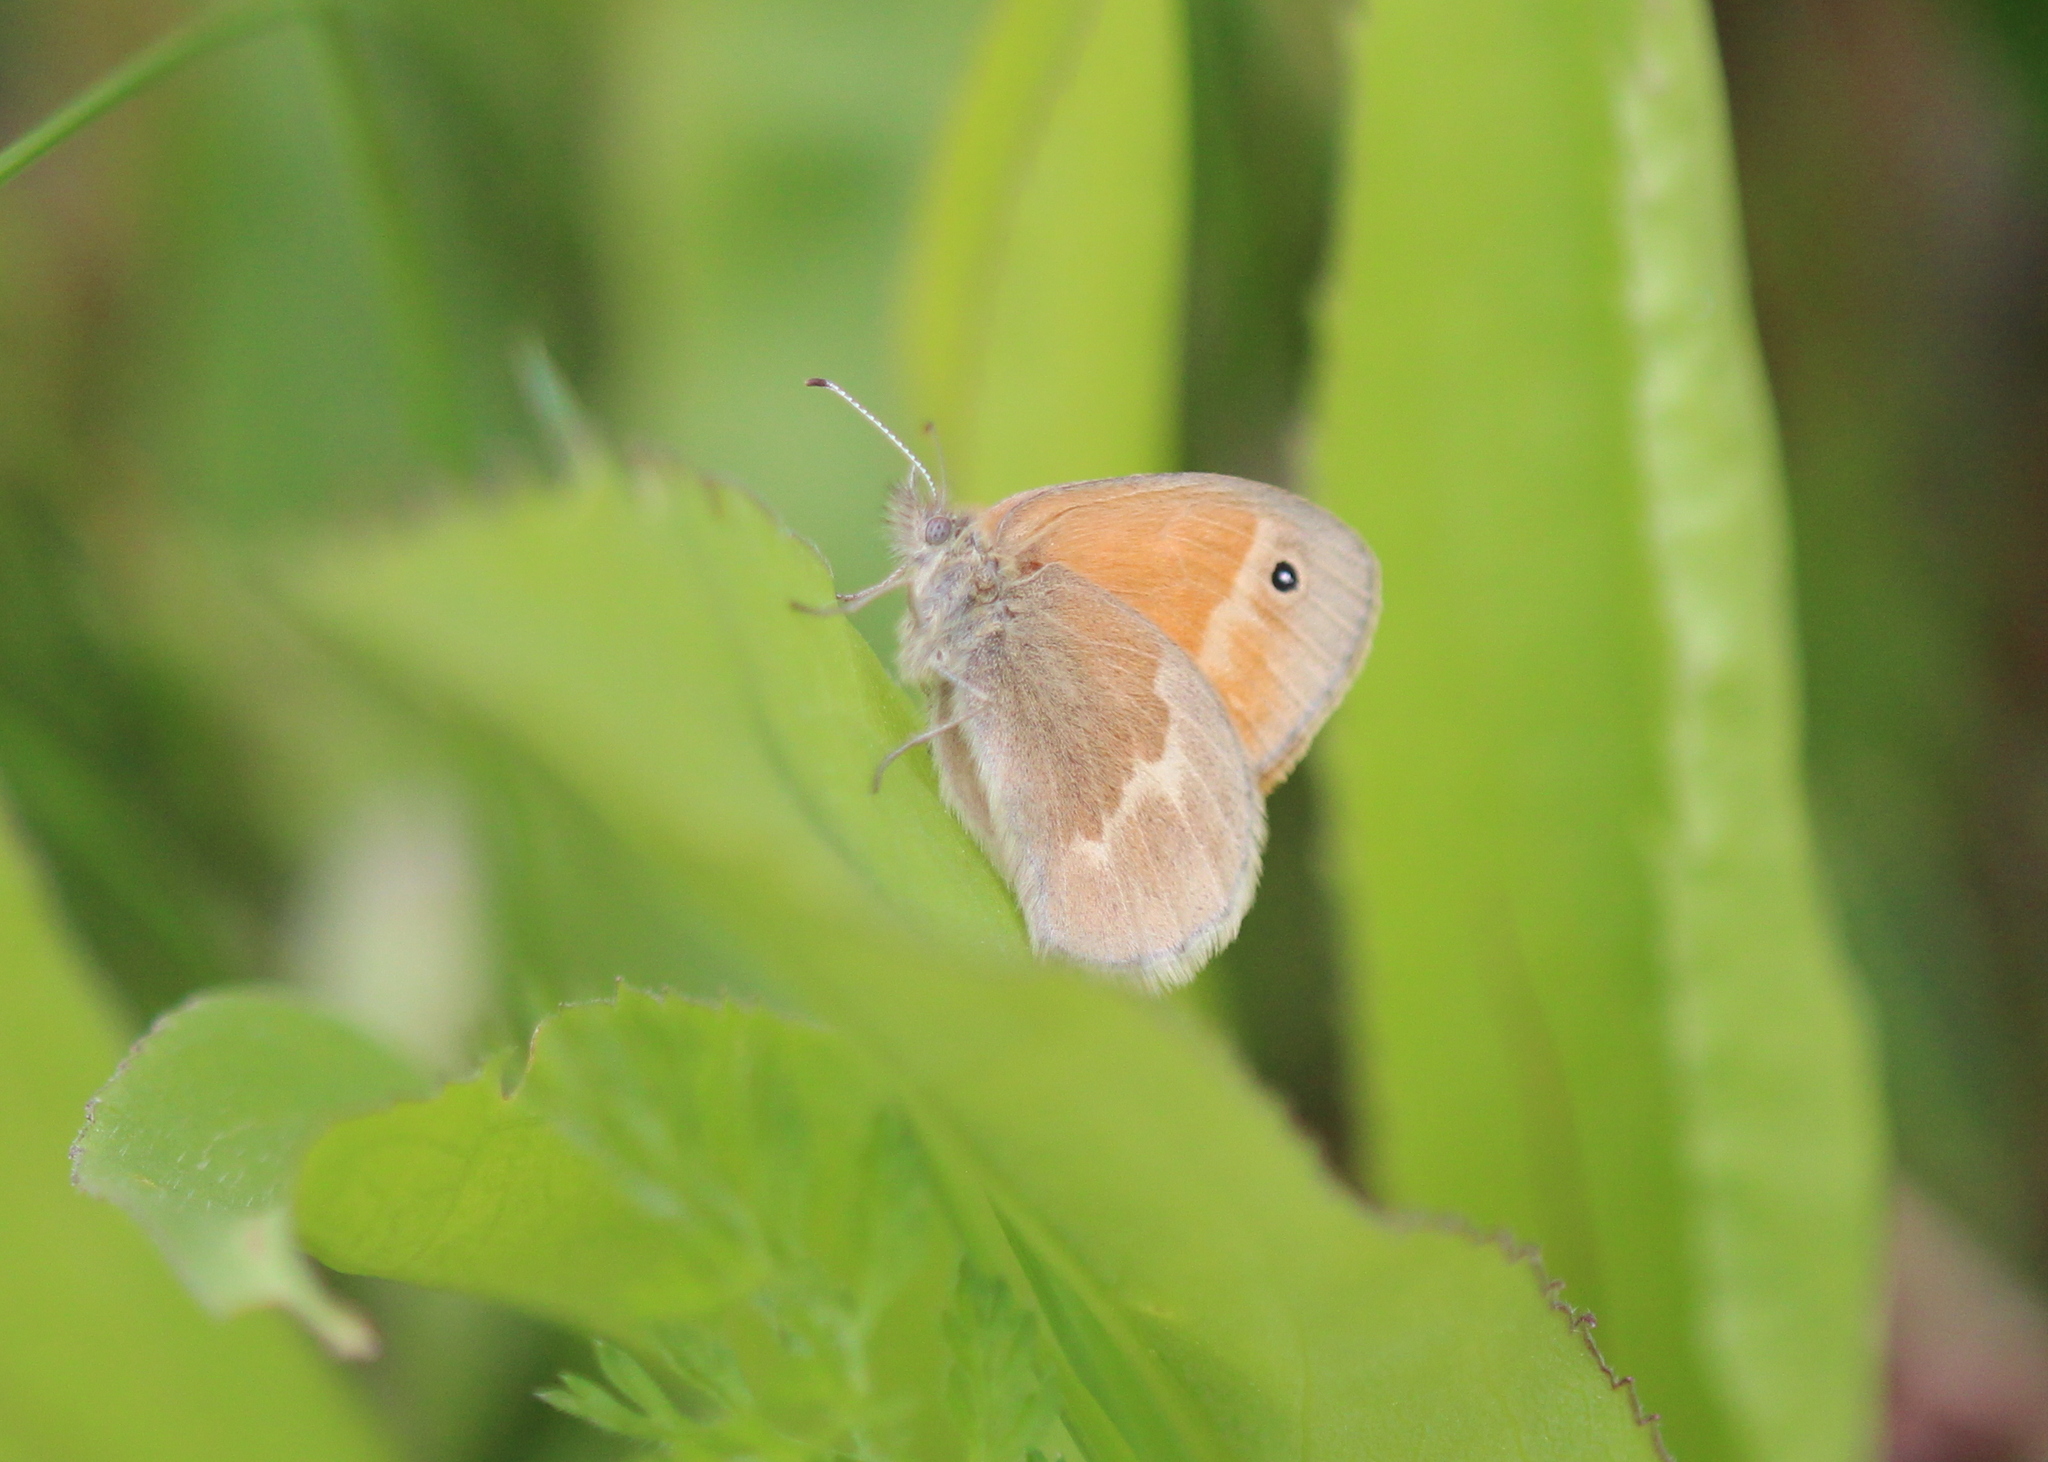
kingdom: Animalia
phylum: Arthropoda
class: Insecta
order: Lepidoptera
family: Nymphalidae
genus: Coenonympha
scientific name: Coenonympha california
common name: Common ringlet
